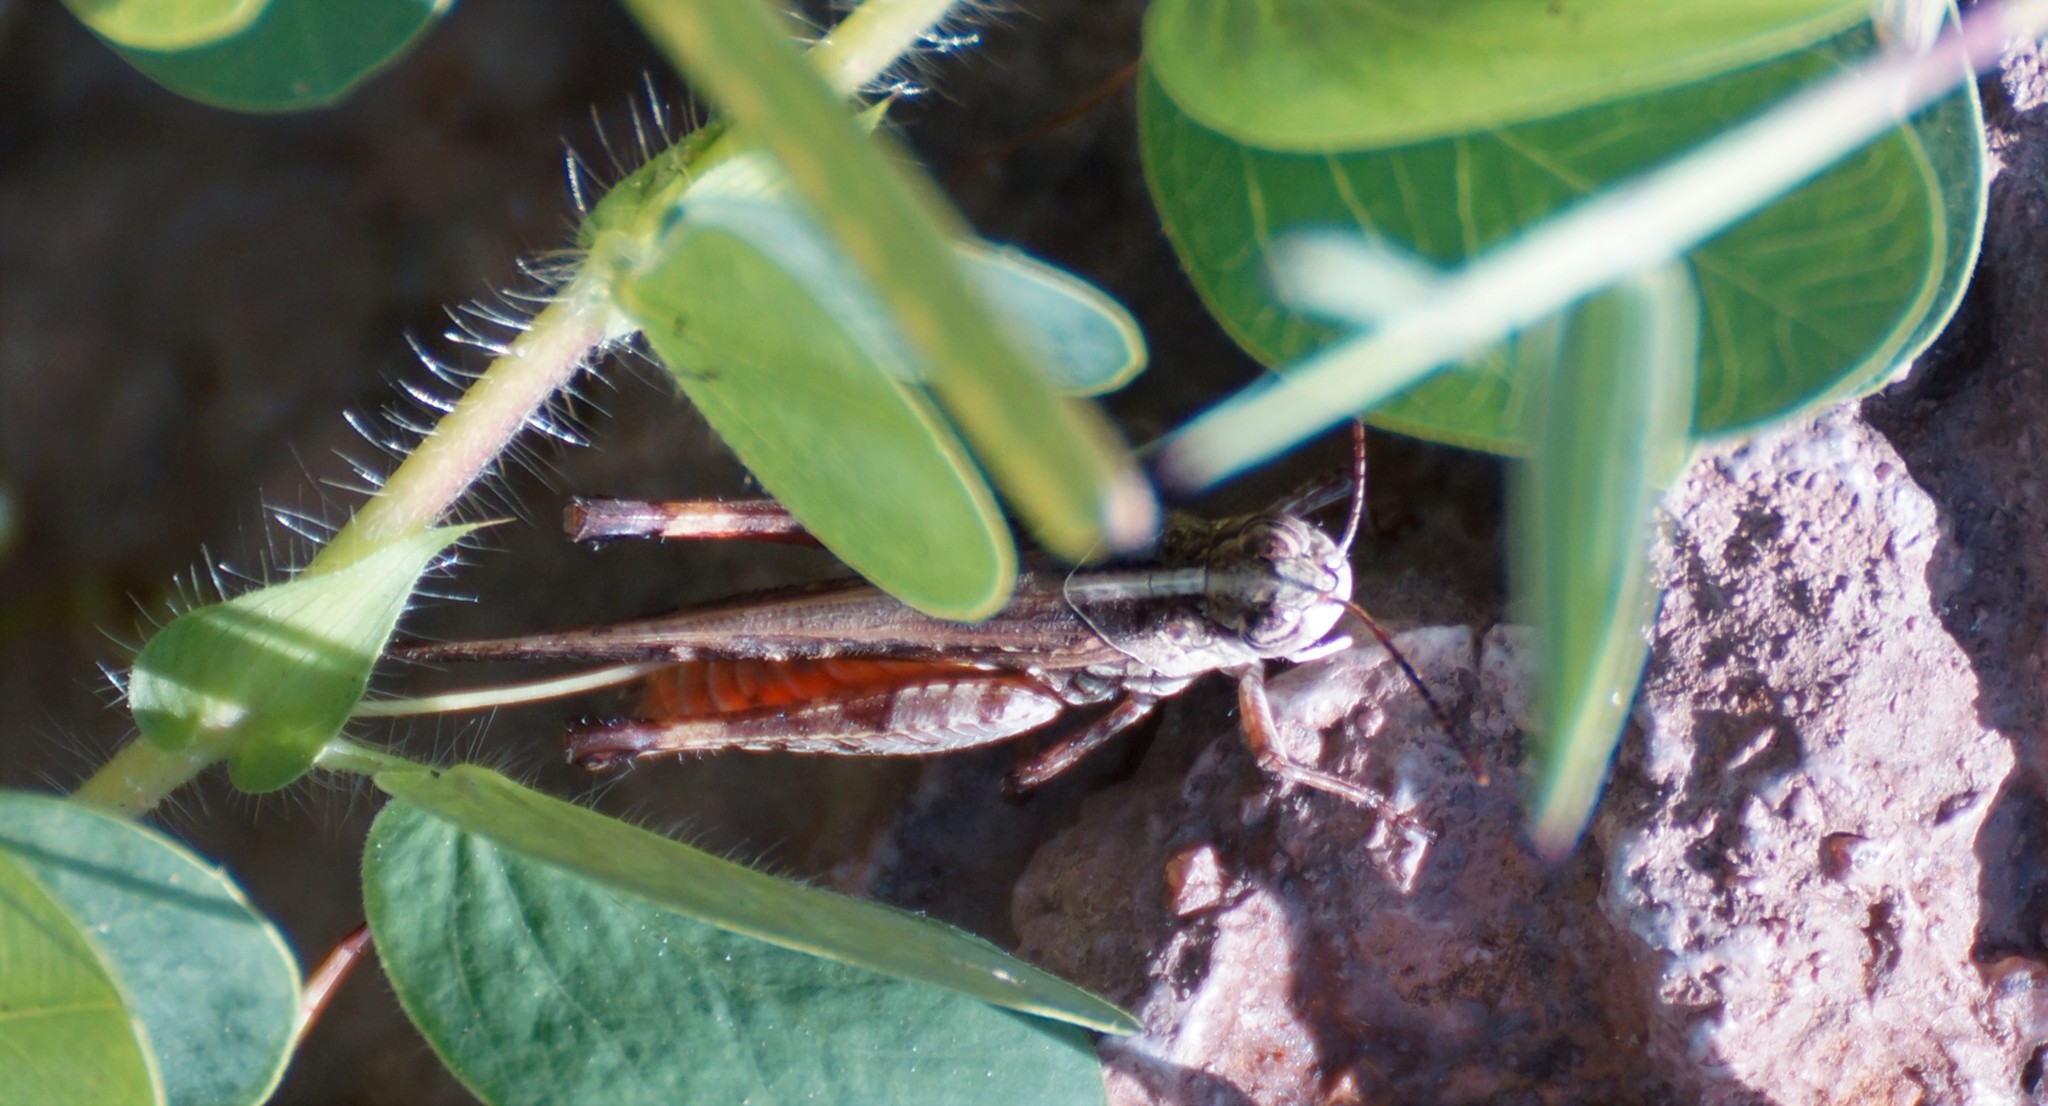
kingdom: Animalia
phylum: Arthropoda
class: Insecta
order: Orthoptera
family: Acrididae
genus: Heteropternis
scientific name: Heteropternis obscurella
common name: Long-legged bandwing
